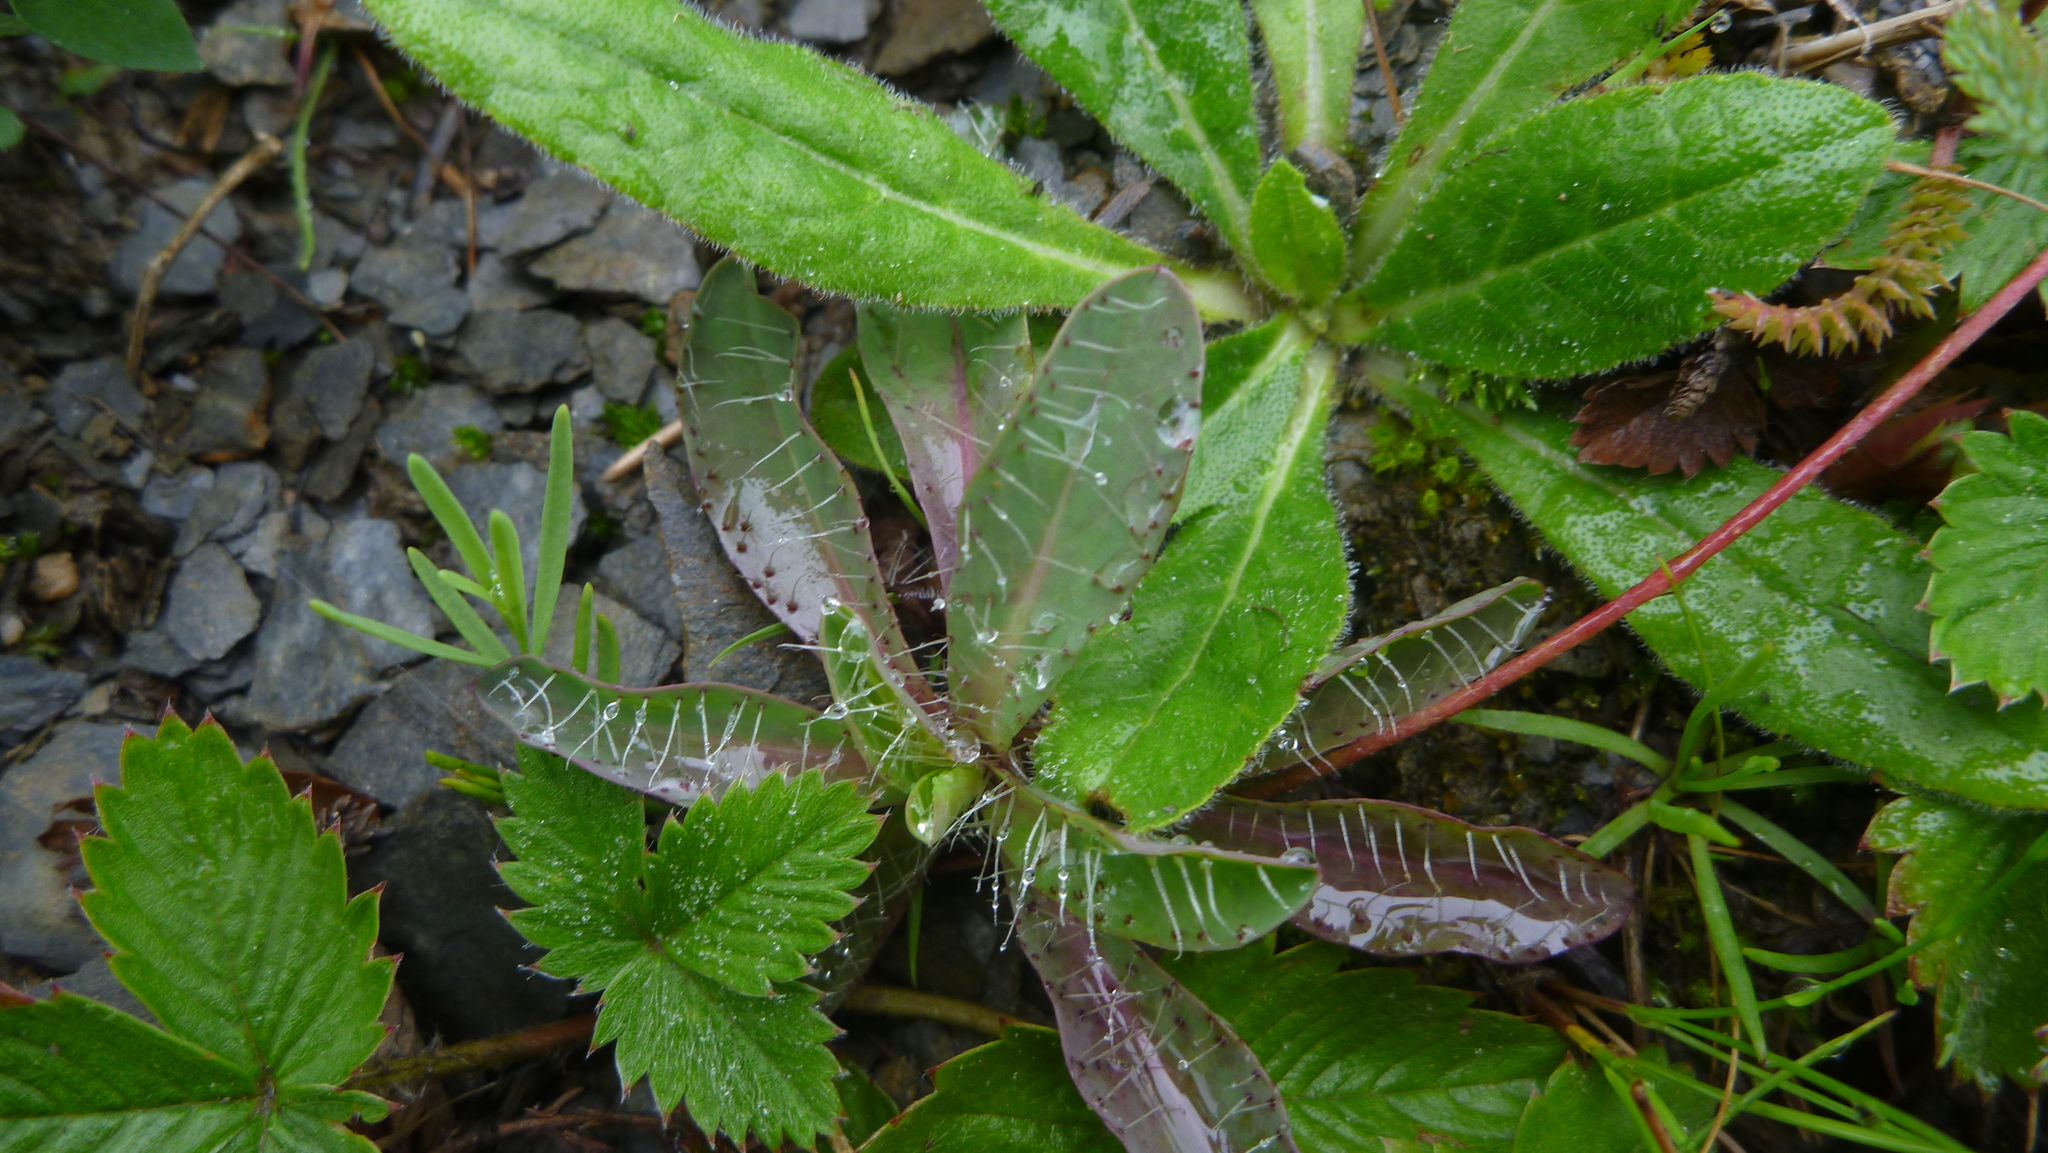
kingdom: Plantae
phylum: Tracheophyta
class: Magnoliopsida
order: Asterales
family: Asteraceae
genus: Pilosella
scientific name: Pilosella piloselloides
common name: Glaucous king-devil
